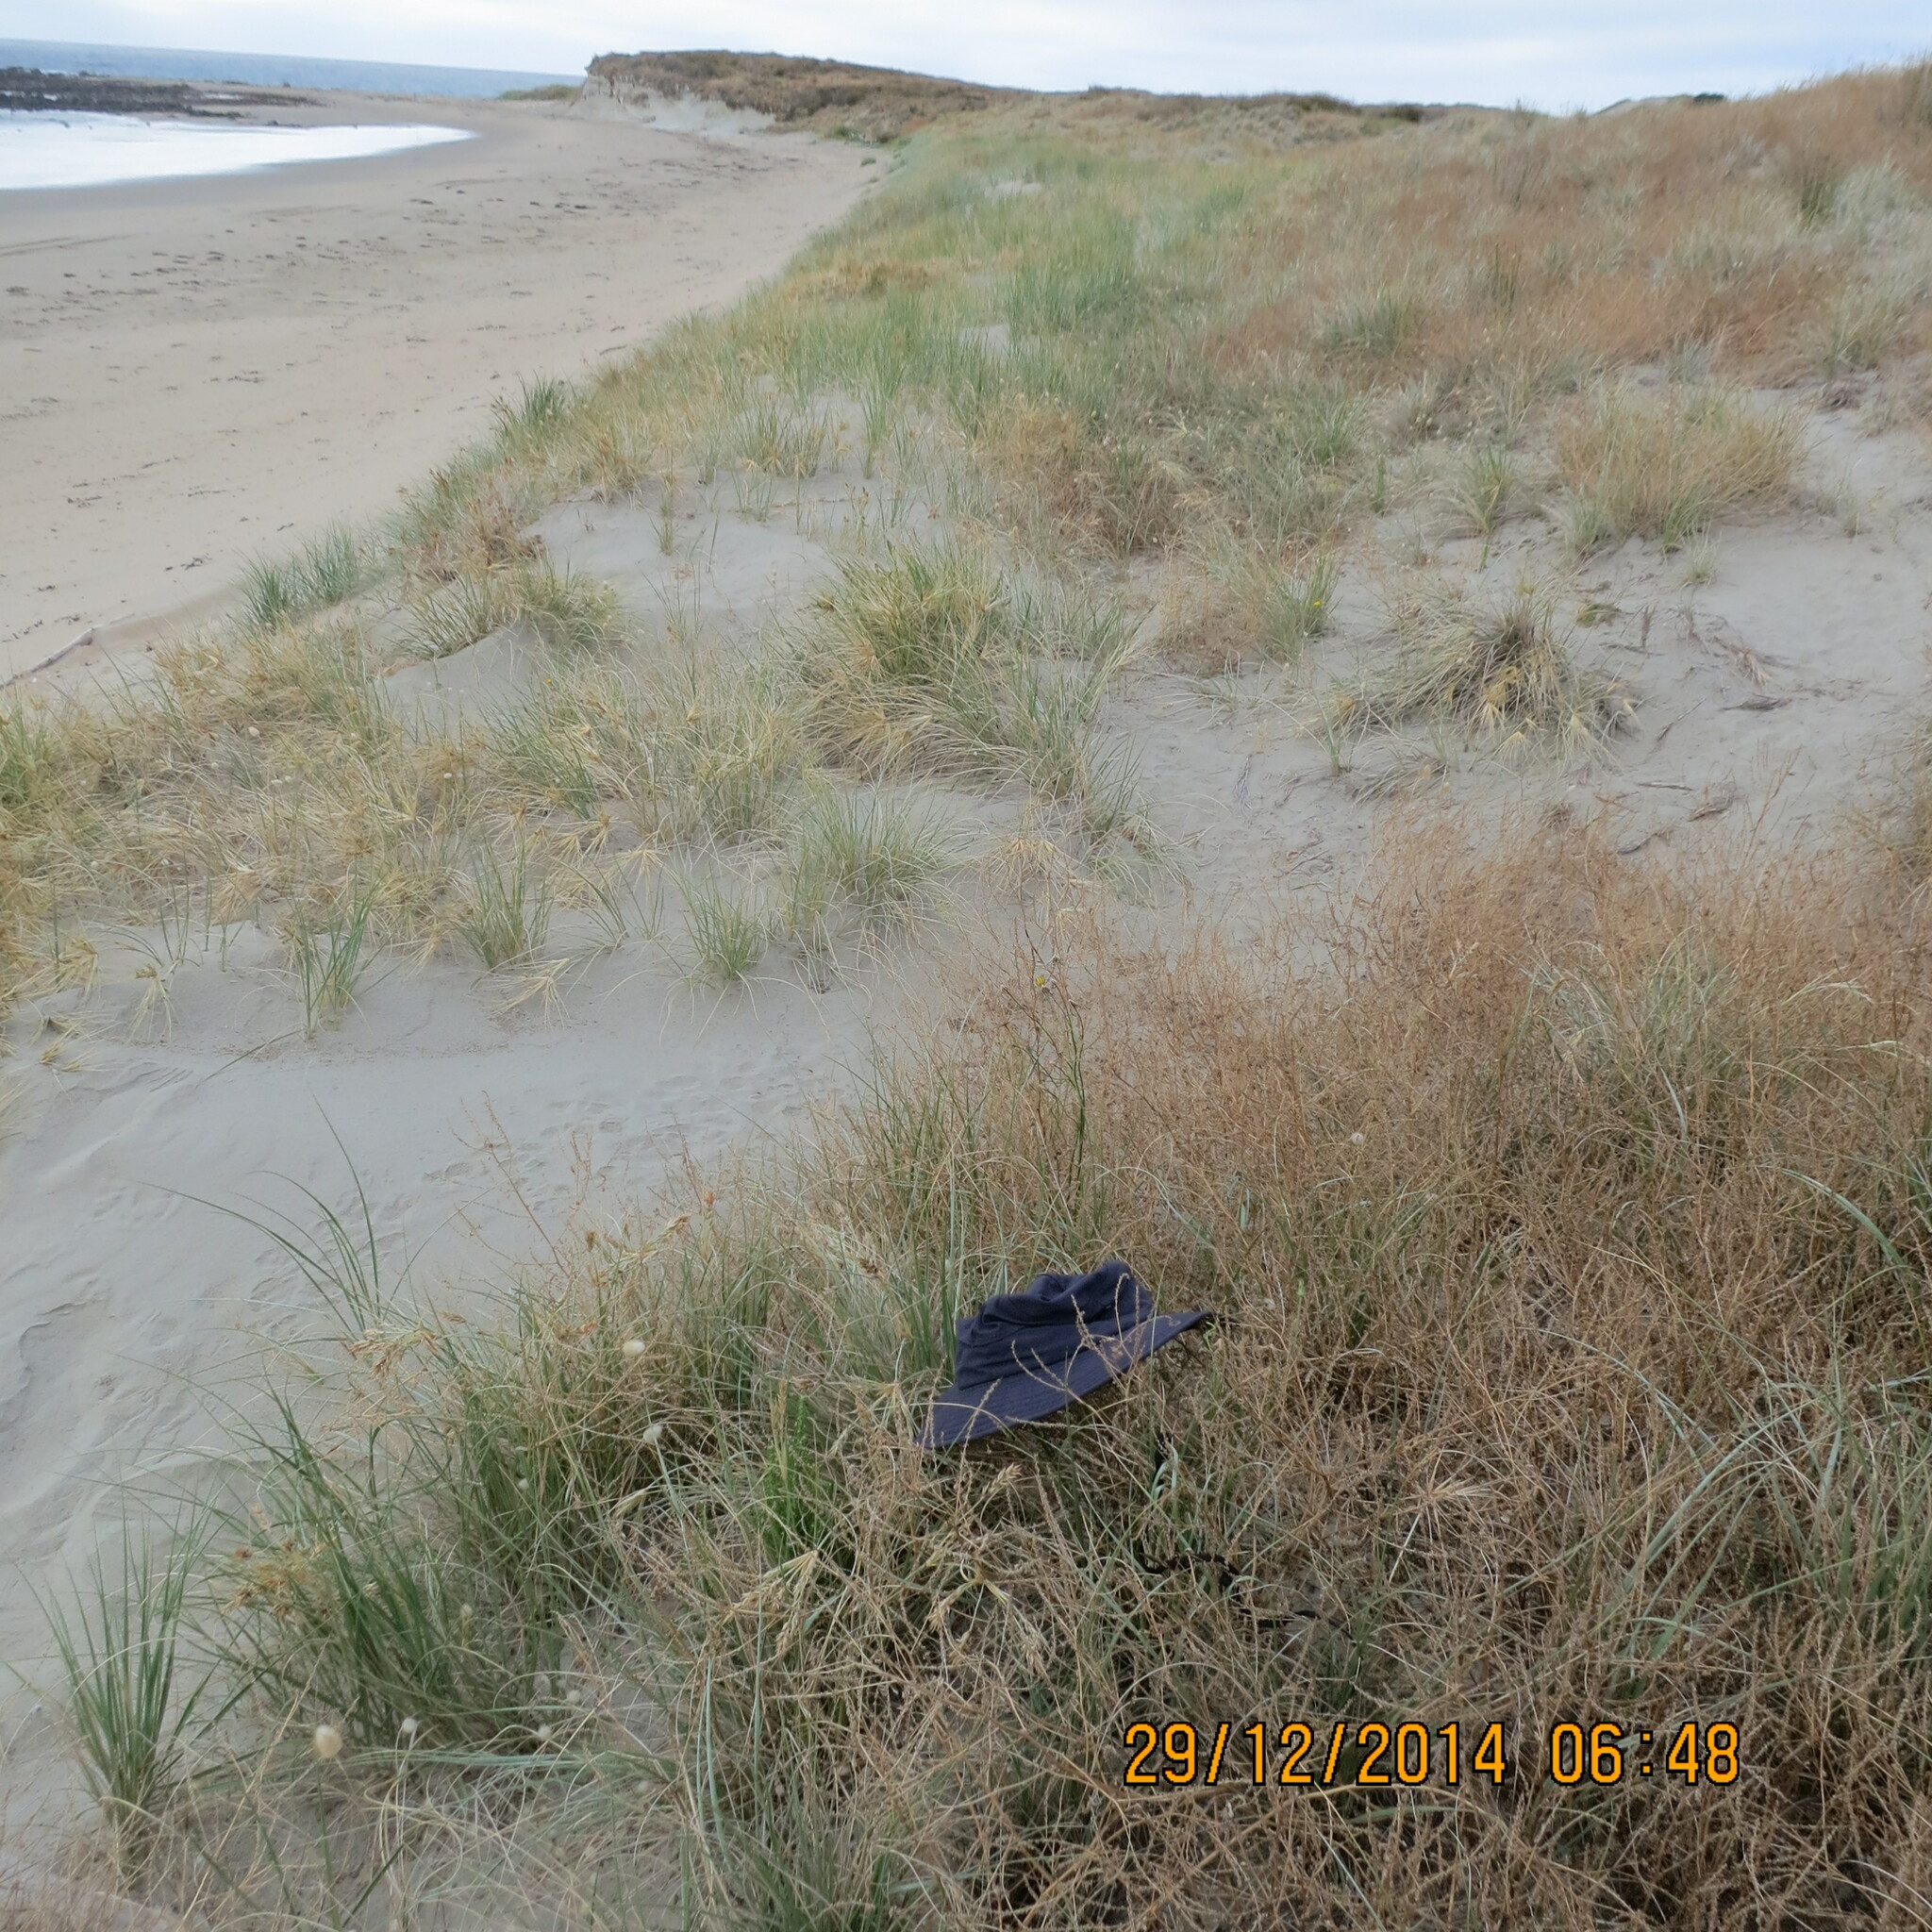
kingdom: Plantae
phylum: Tracheophyta
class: Magnoliopsida
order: Asterales
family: Asteraceae
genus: Ozothamnus
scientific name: Ozothamnus leptophyllus
